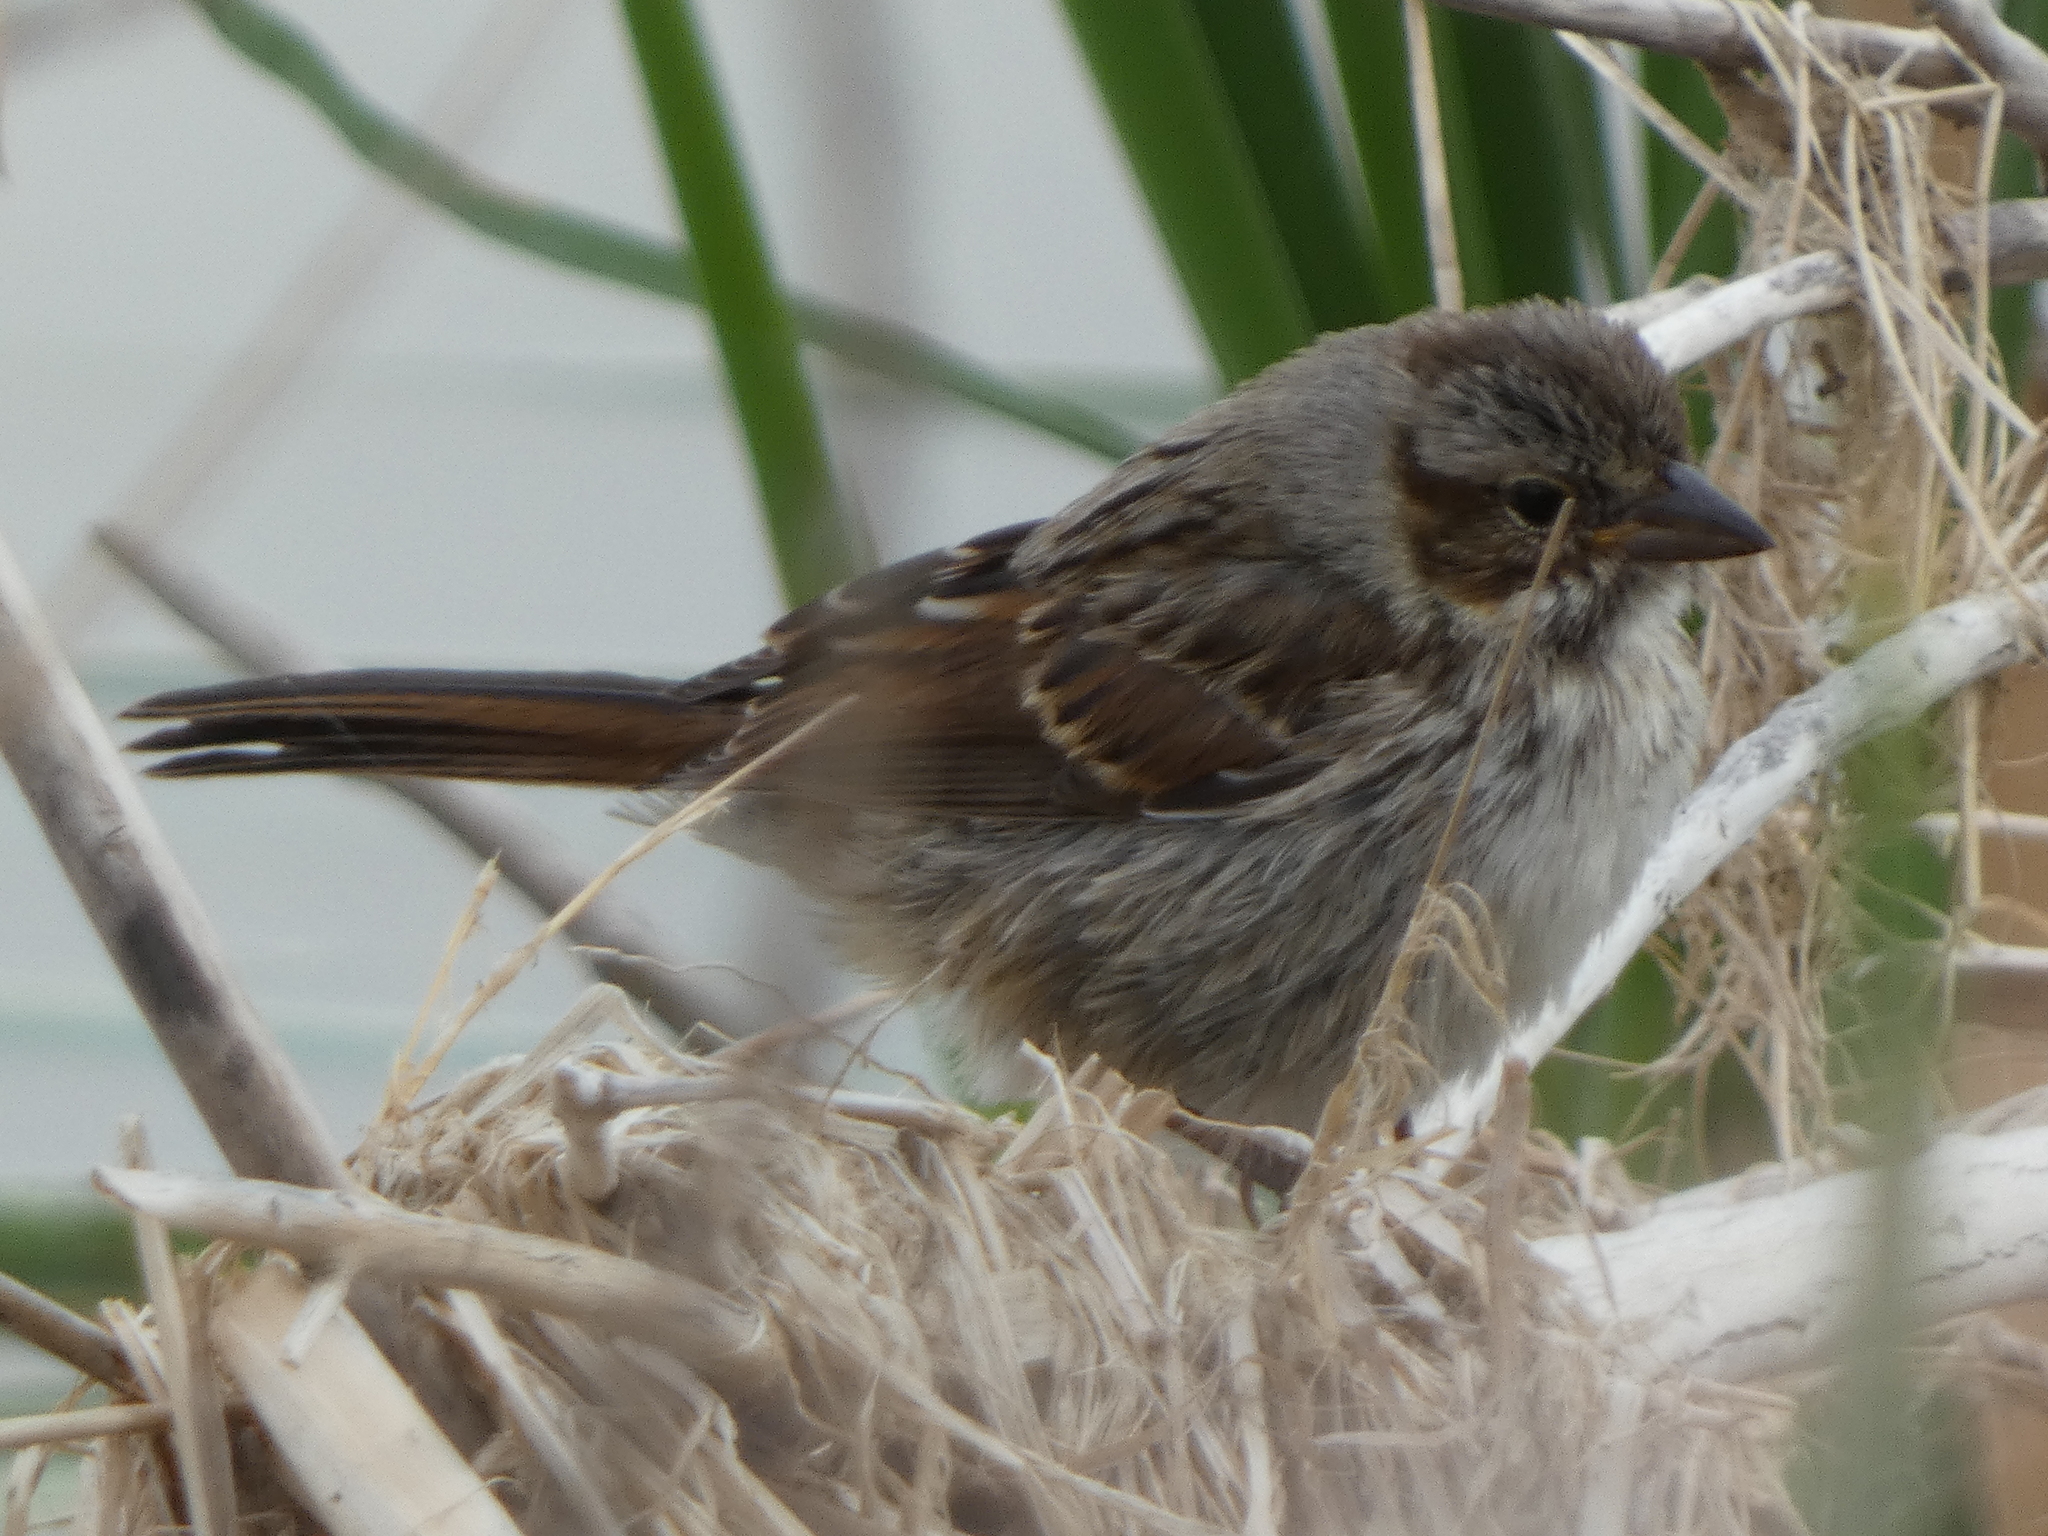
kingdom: Animalia
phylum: Chordata
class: Aves
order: Passeriformes
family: Passerellidae
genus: Melospiza
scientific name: Melospiza melodia
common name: Song sparrow
